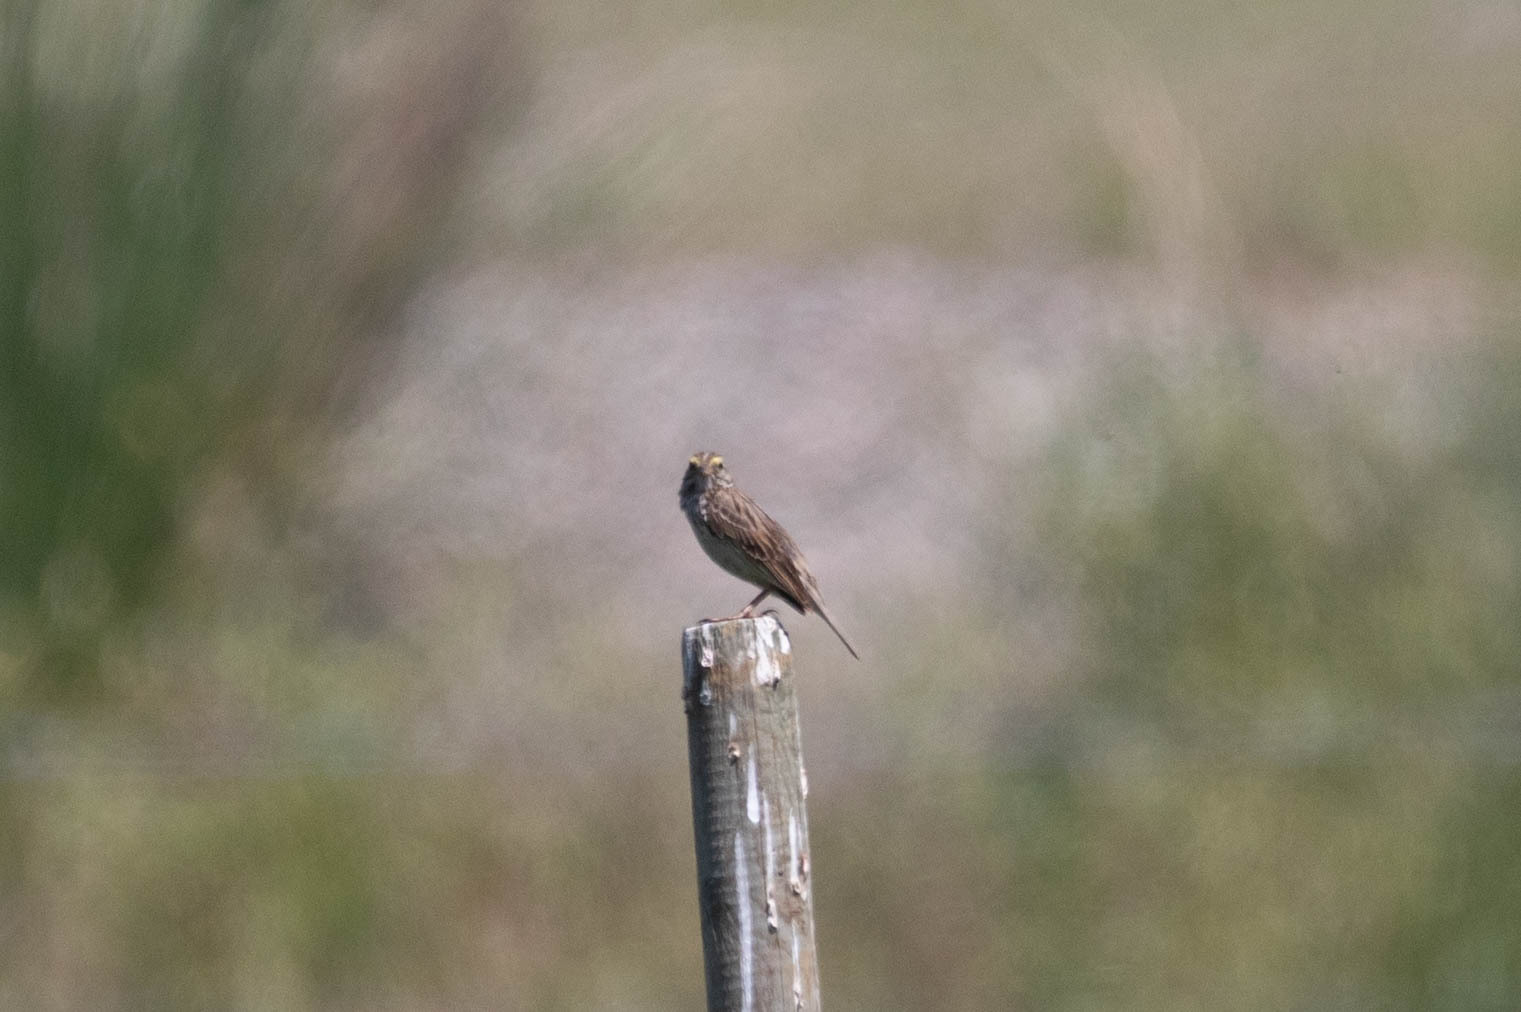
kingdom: Animalia
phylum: Chordata
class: Aves
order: Passeriformes
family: Passerellidae
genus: Passerculus
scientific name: Passerculus sandwichensis
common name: Savannah sparrow
